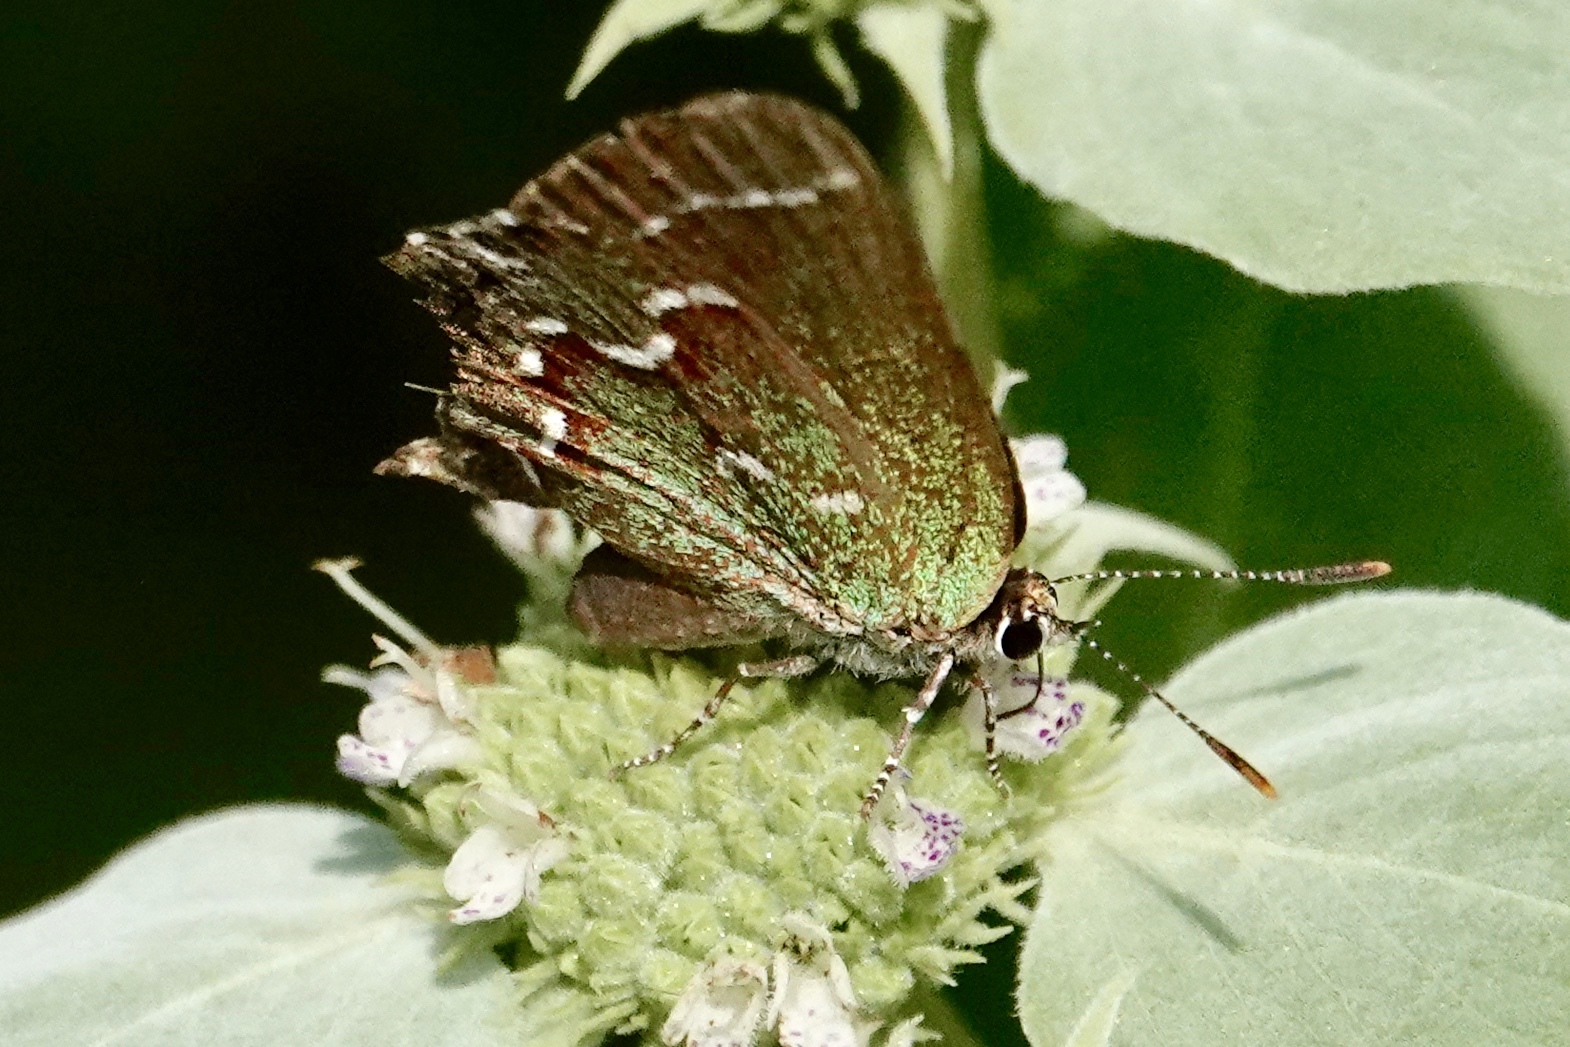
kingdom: Animalia
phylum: Arthropoda
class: Insecta
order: Lepidoptera
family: Lycaenidae
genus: Mitoura
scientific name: Mitoura gryneus
